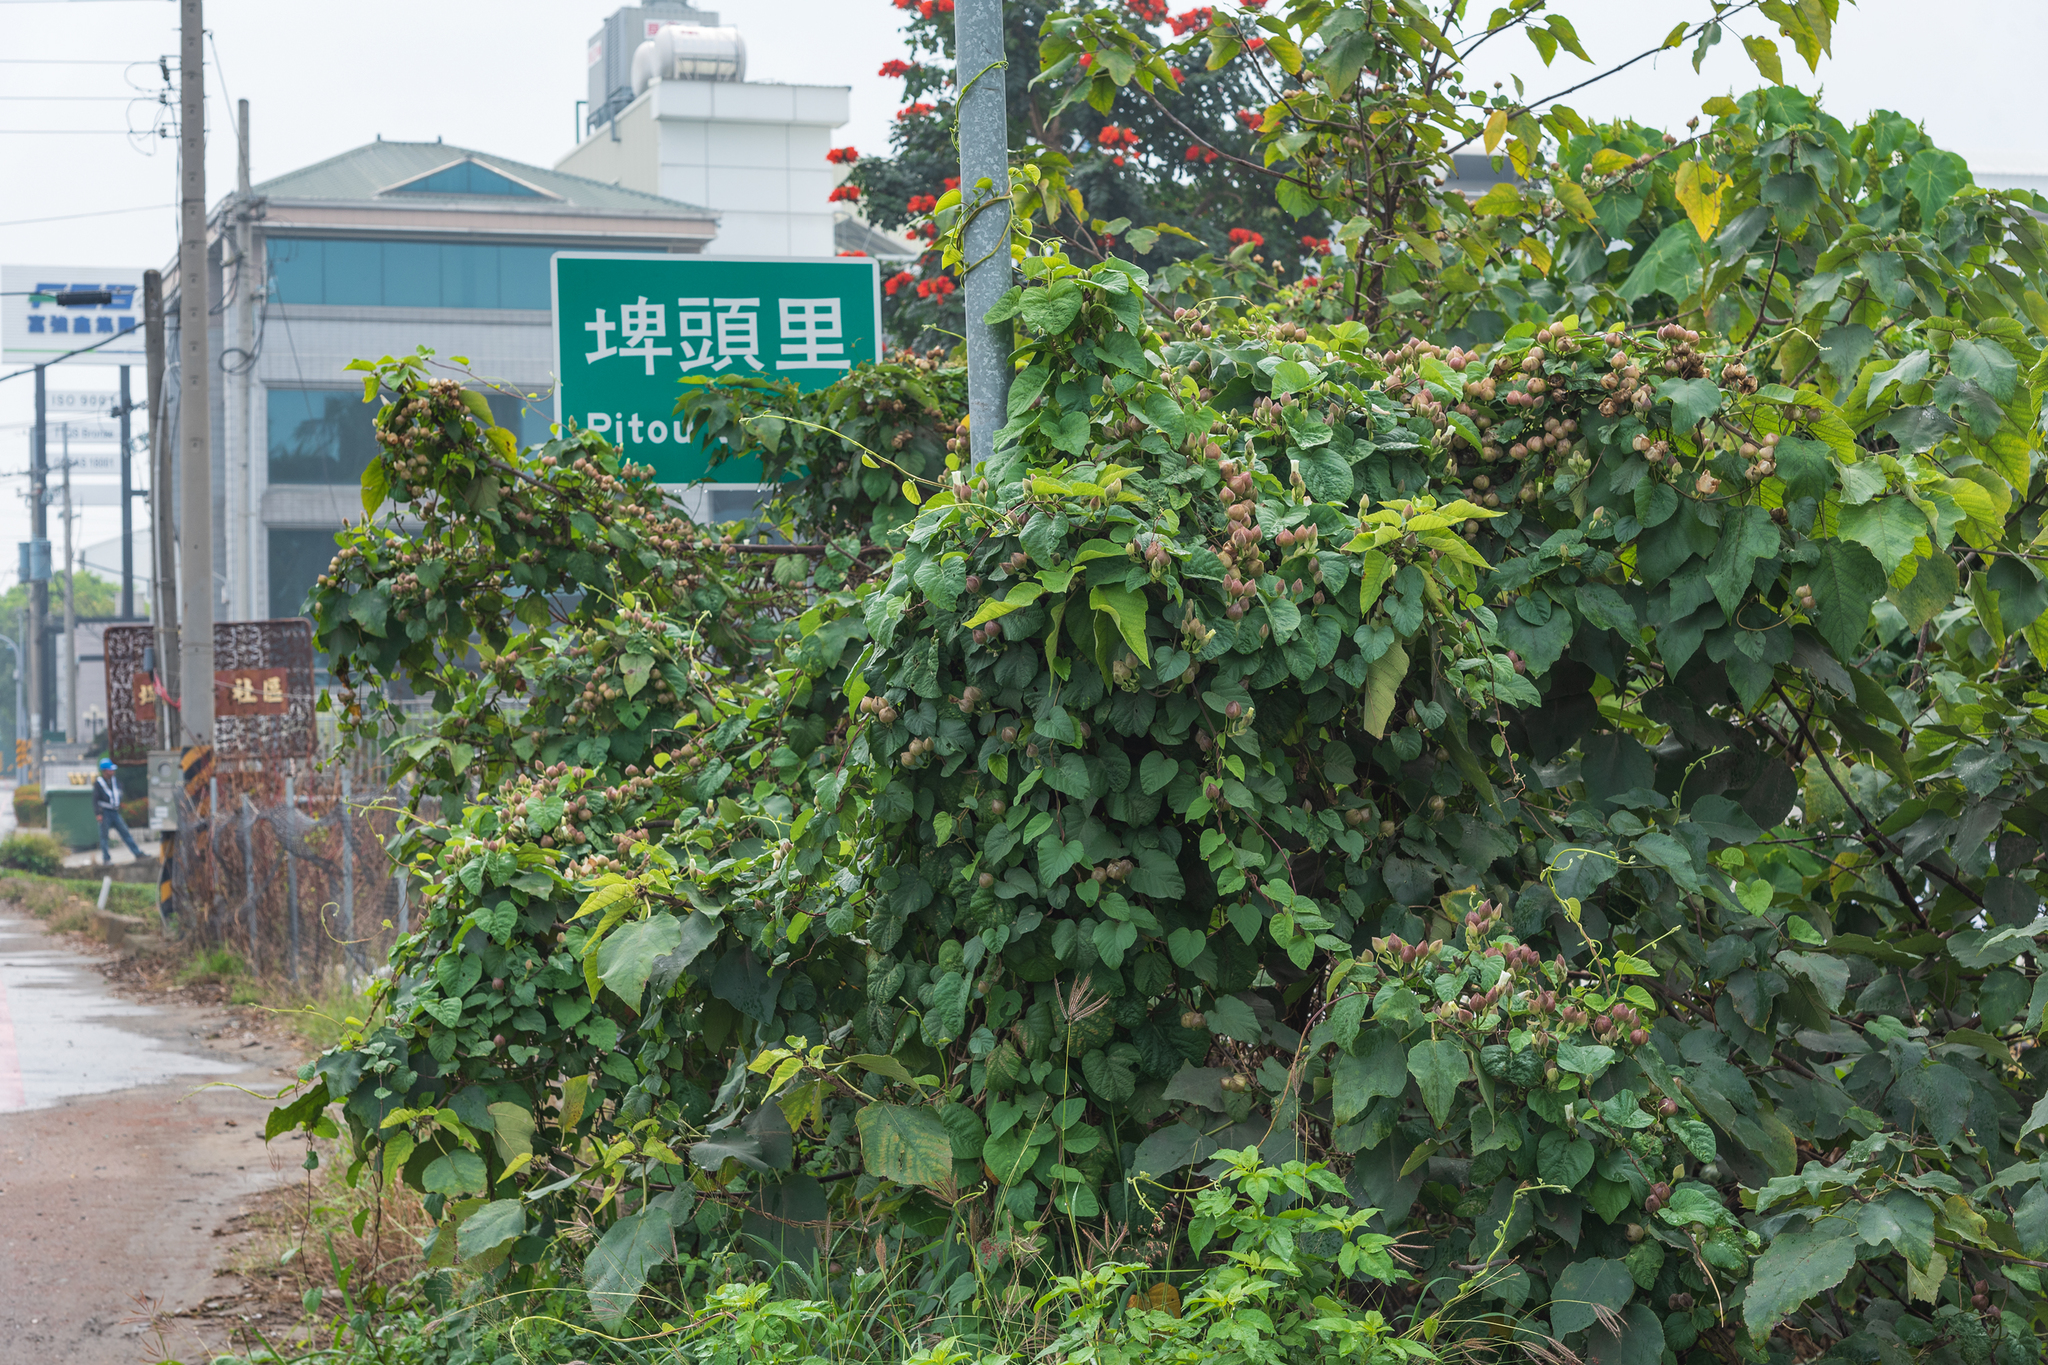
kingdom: Plantae
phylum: Tracheophyta
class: Magnoliopsida
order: Solanales
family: Convolvulaceae
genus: Operculina
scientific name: Operculina turpethum
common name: Transparent wood-rose
